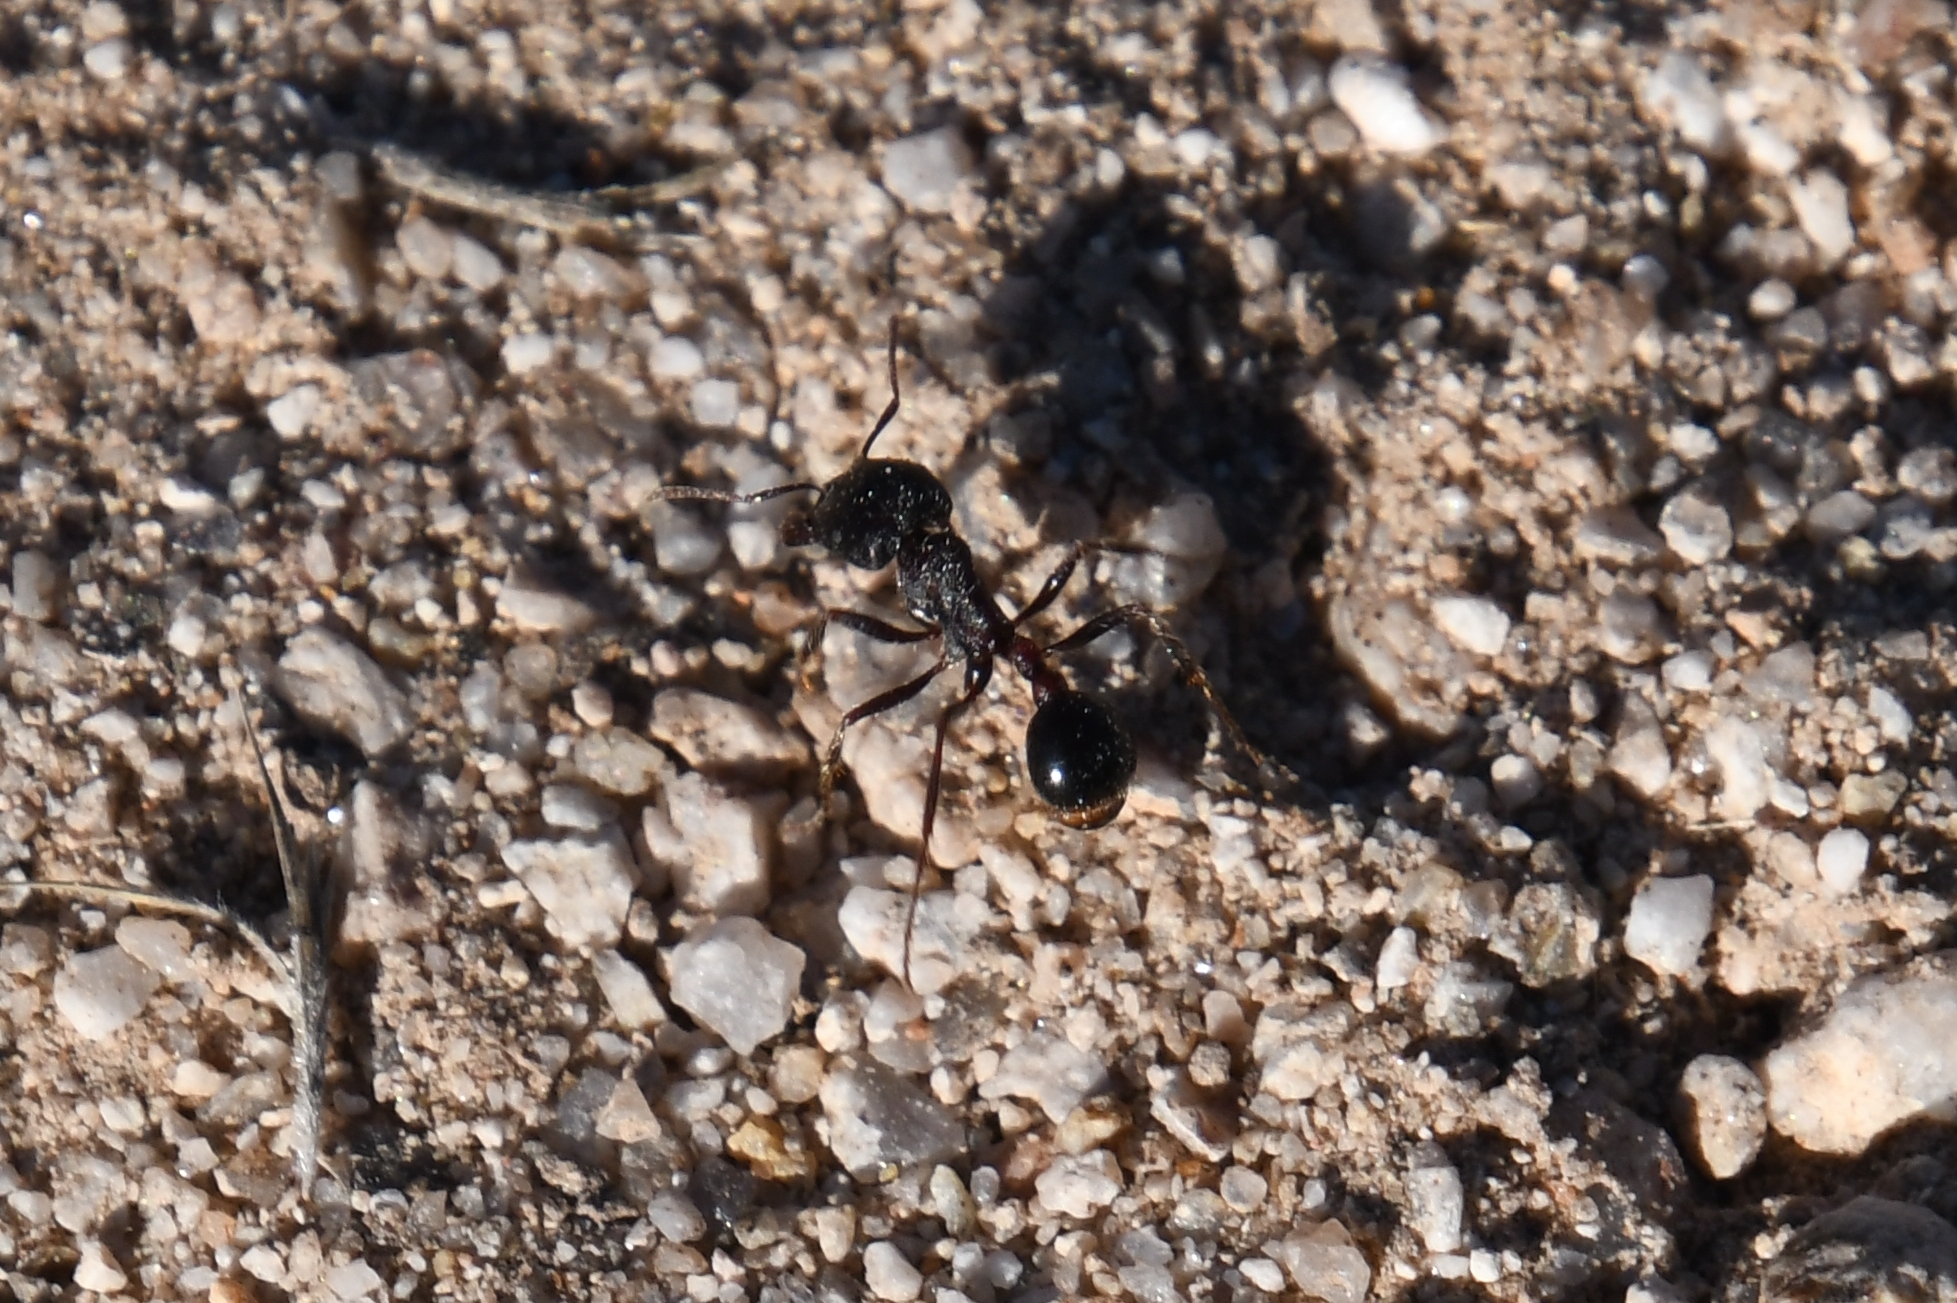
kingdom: Animalia
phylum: Arthropoda
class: Insecta
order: Hymenoptera
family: Formicidae
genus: Pogonomyrmex
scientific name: Pogonomyrmex rugosus
